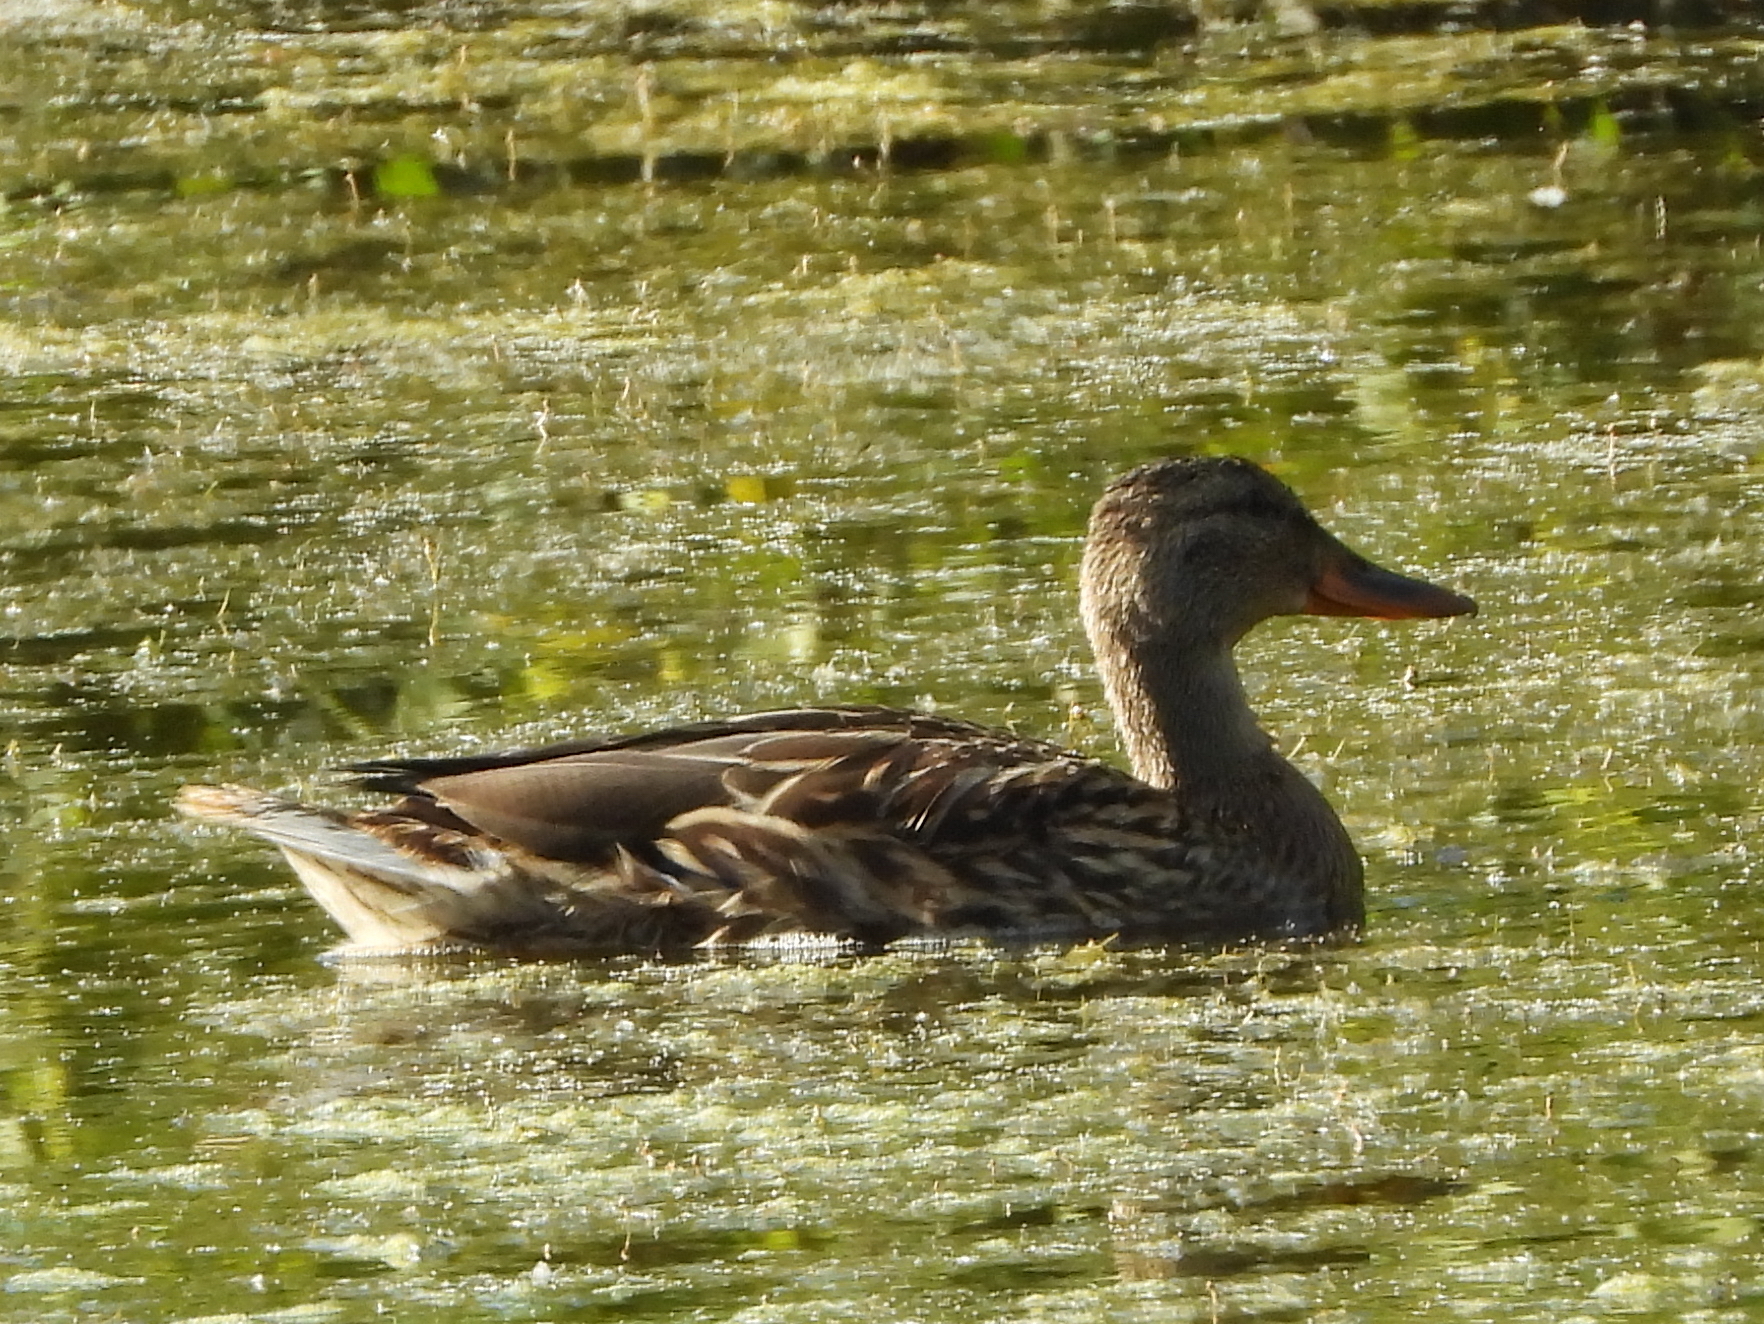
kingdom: Animalia
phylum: Chordata
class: Aves
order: Anseriformes
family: Anatidae
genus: Anas
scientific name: Anas platyrhynchos
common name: Mallard
